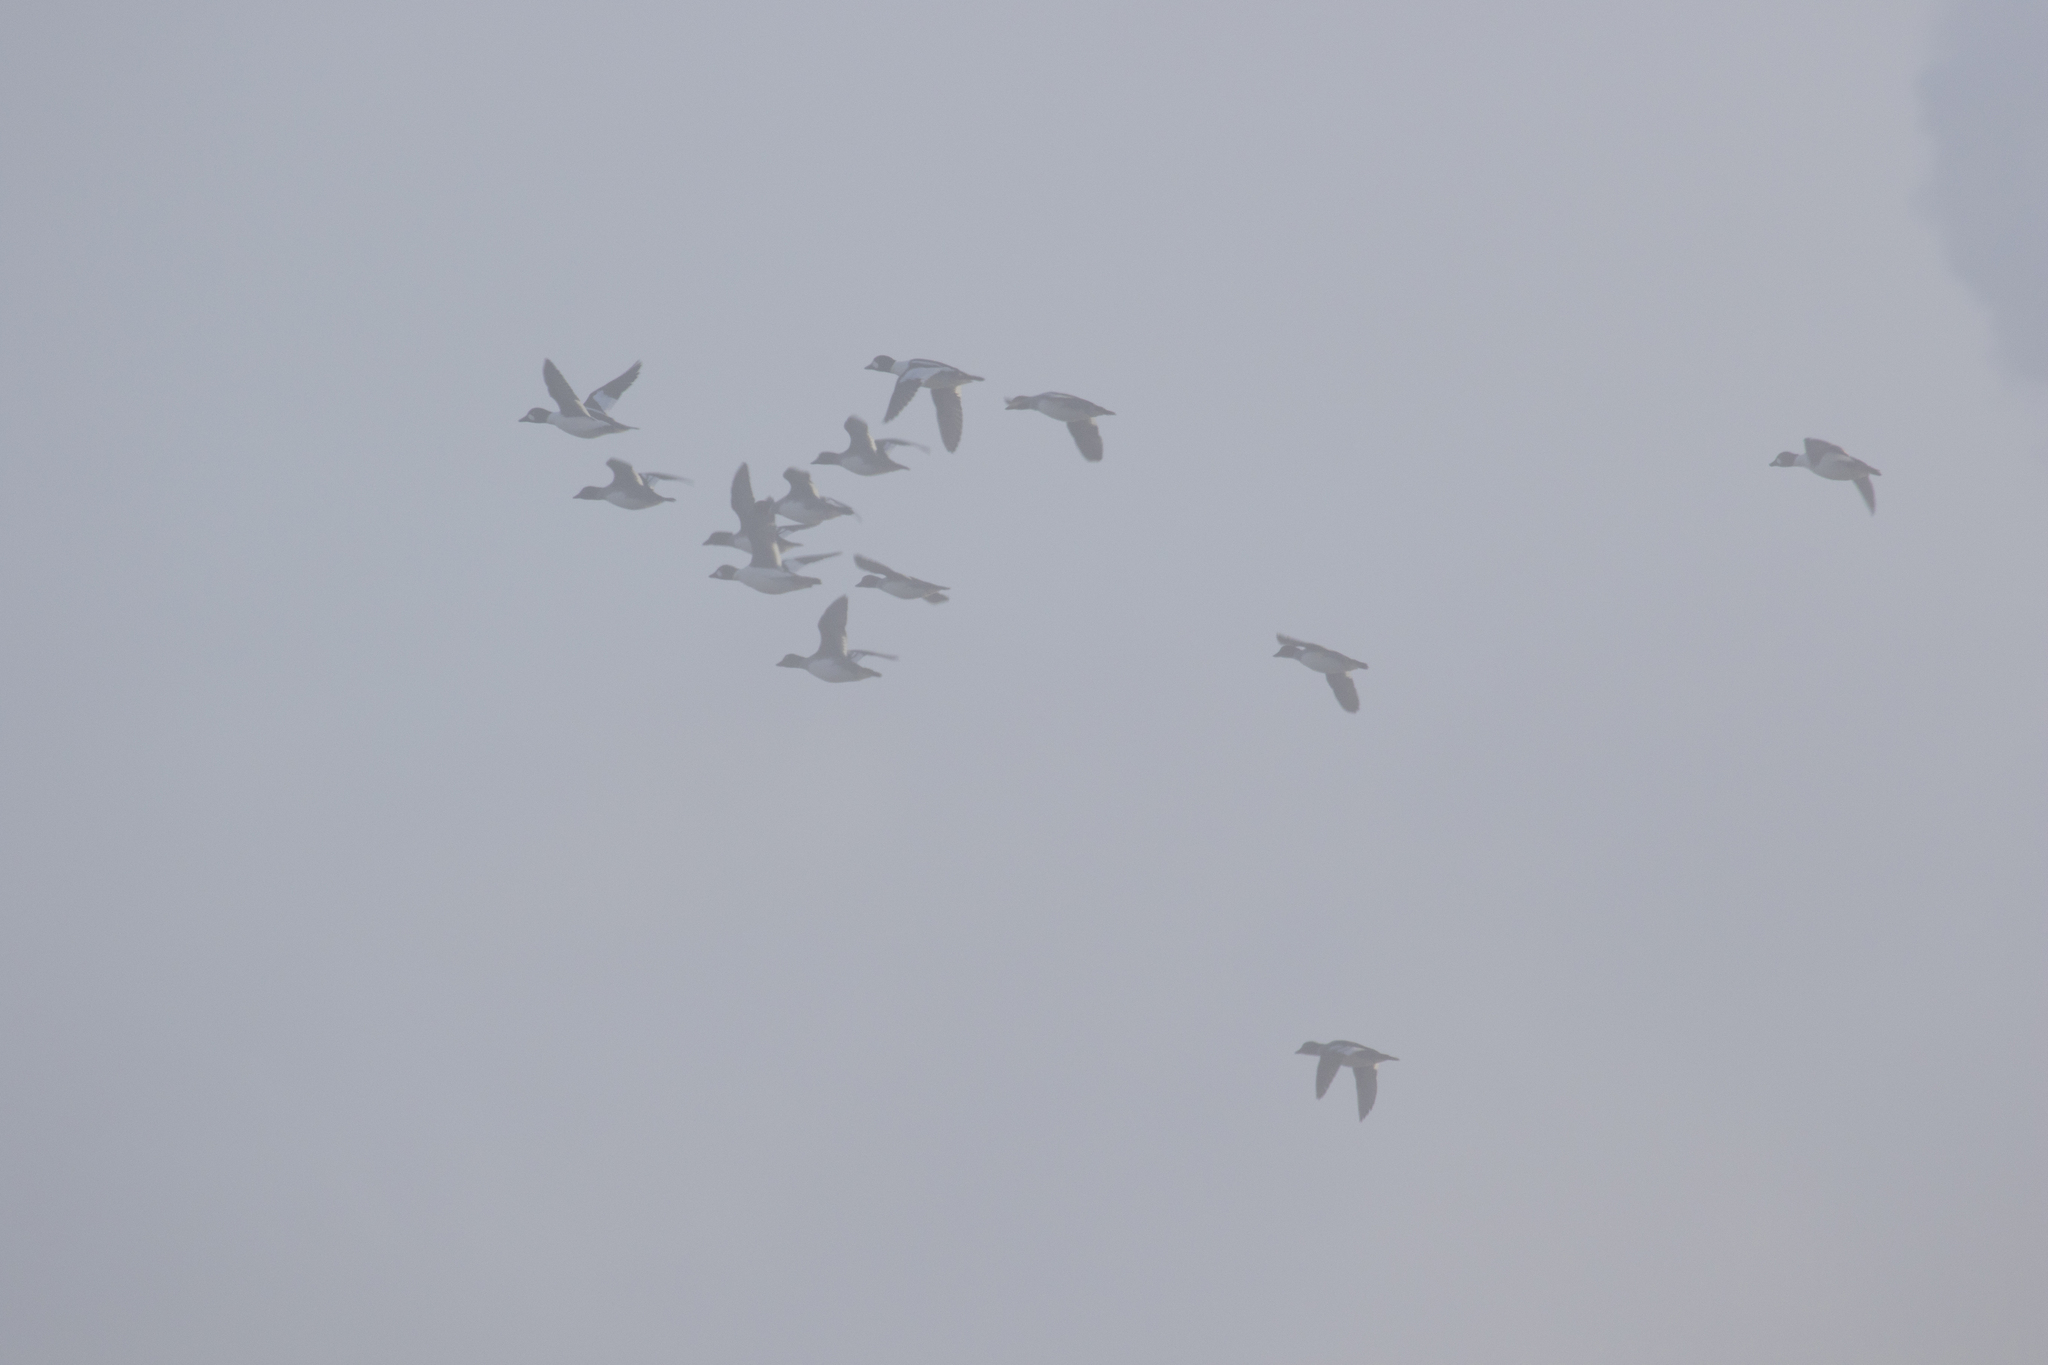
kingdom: Animalia
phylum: Chordata
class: Aves
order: Anseriformes
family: Anatidae
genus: Bucephala
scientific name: Bucephala clangula
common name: Common goldeneye
